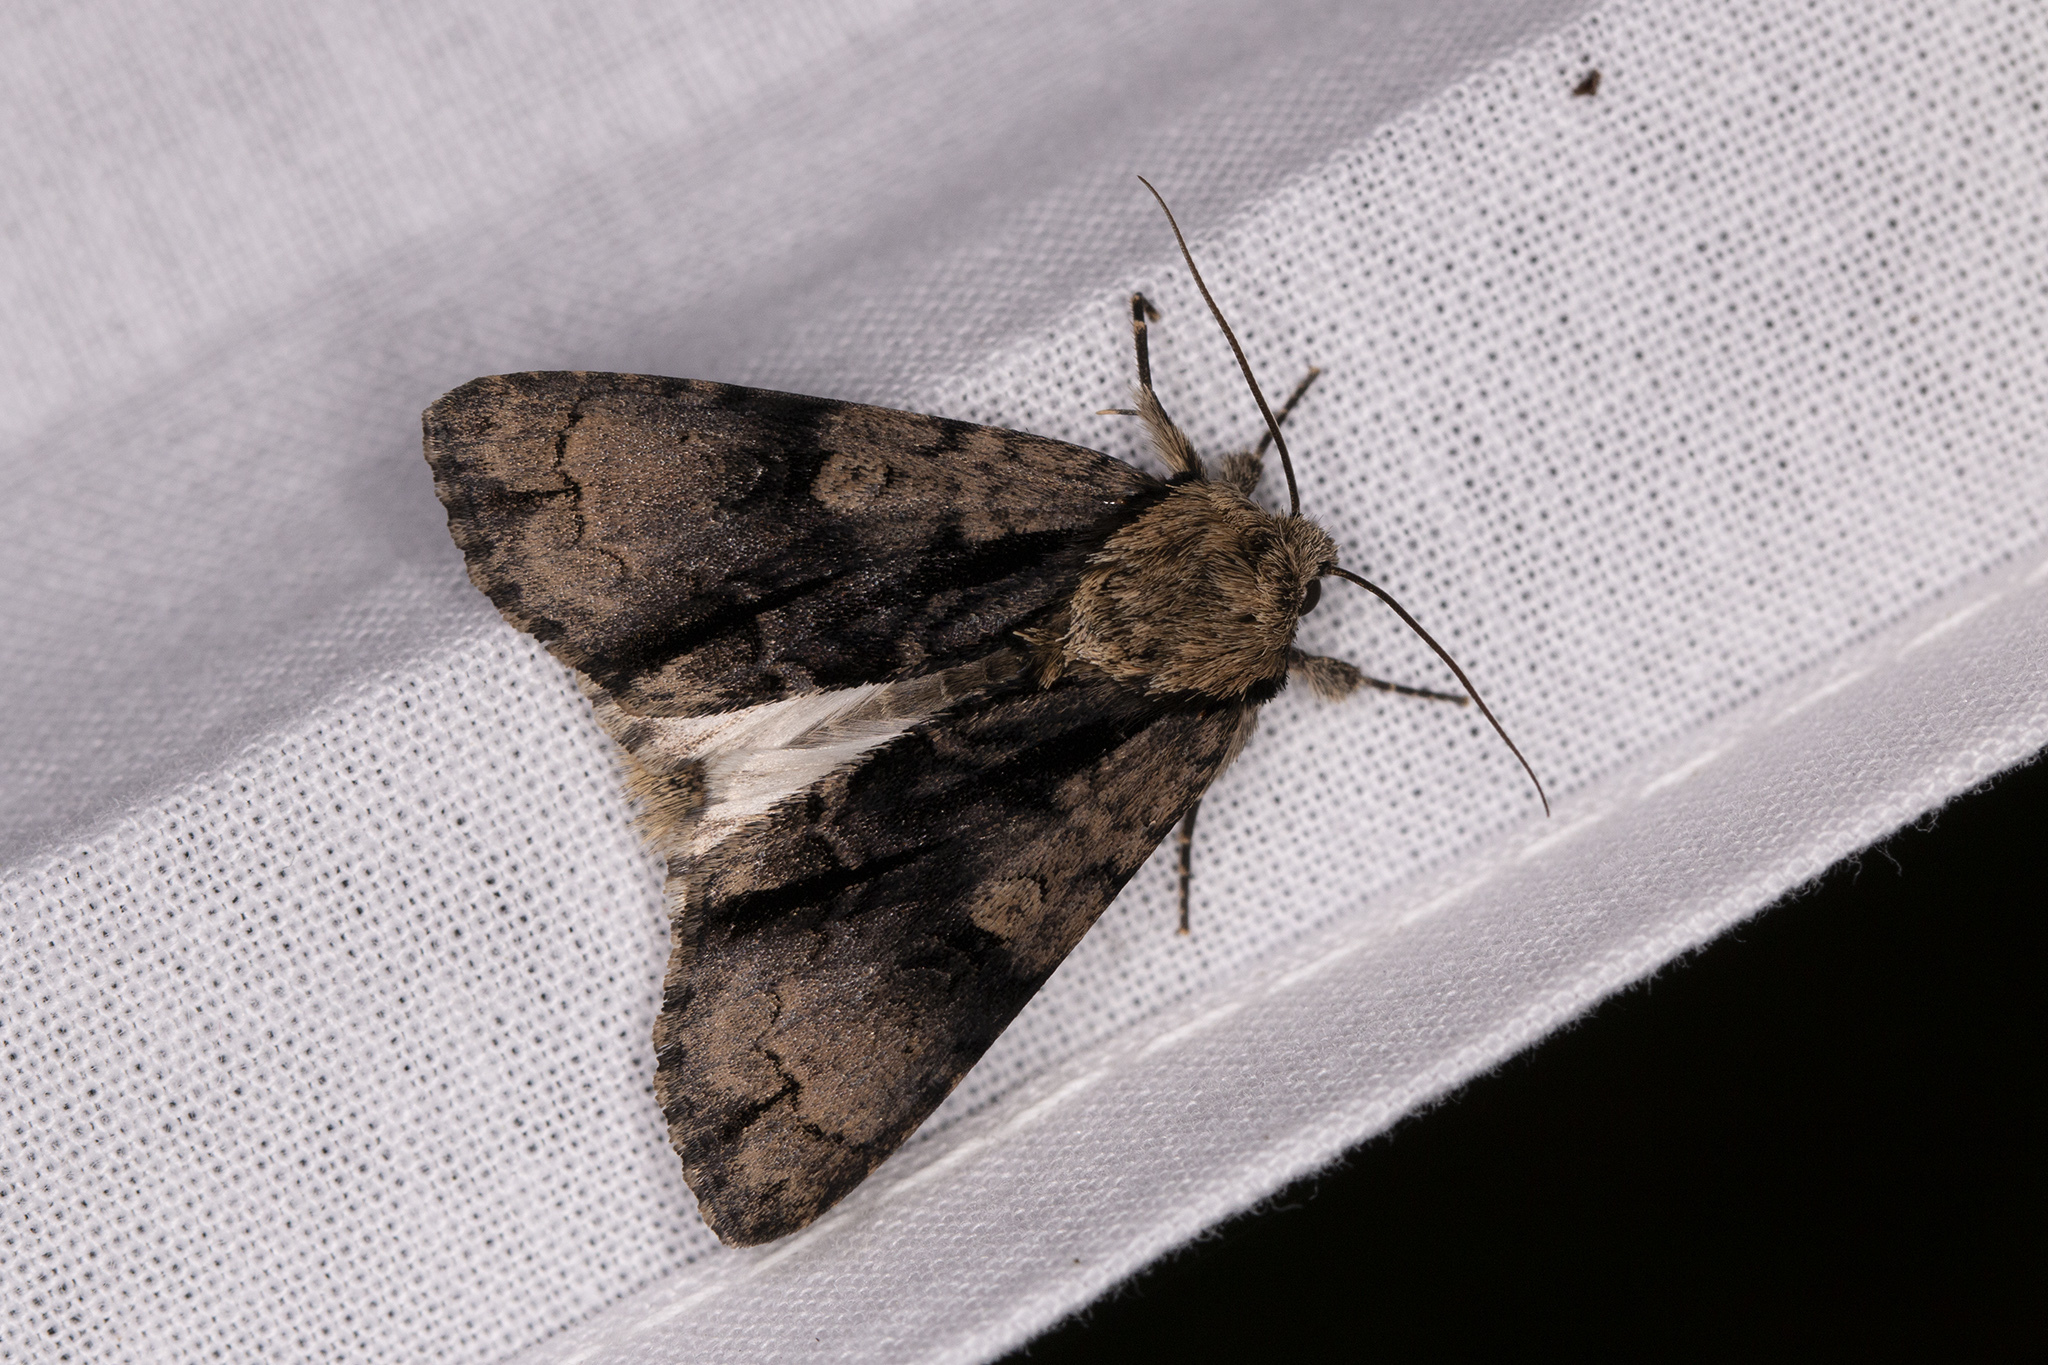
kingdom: Animalia
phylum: Arthropoda
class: Insecta
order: Lepidoptera
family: Noctuidae
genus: Acronicta
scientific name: Acronicta alni
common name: Alder moth
